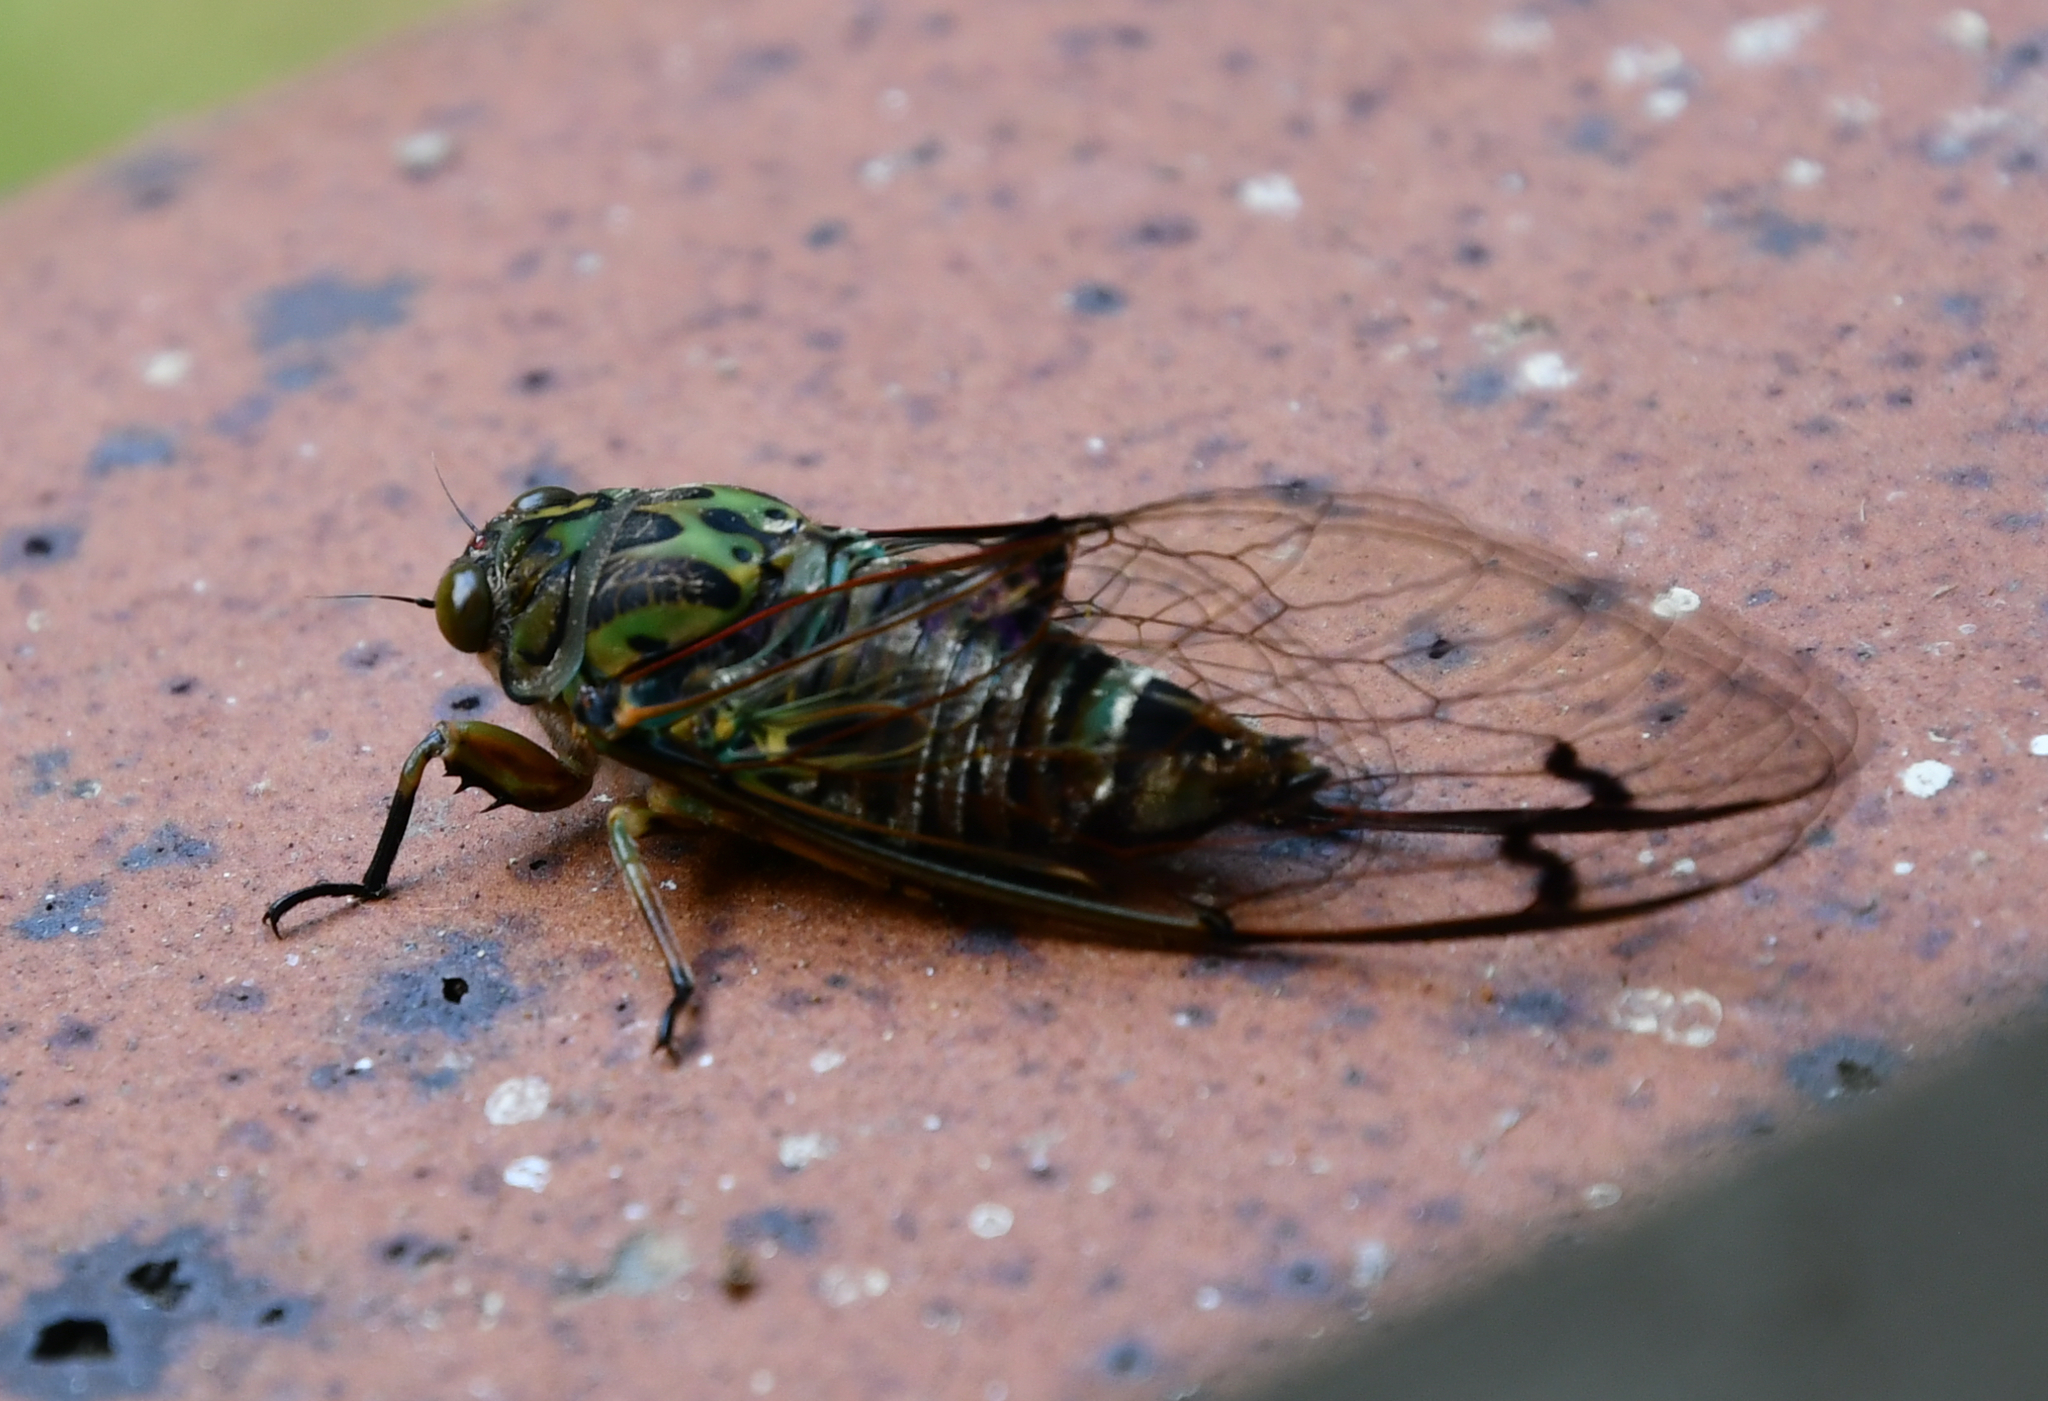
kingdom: Animalia
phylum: Arthropoda
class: Insecta
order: Hemiptera
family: Cicadidae
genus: Amphipsalta
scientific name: Amphipsalta zelandica
